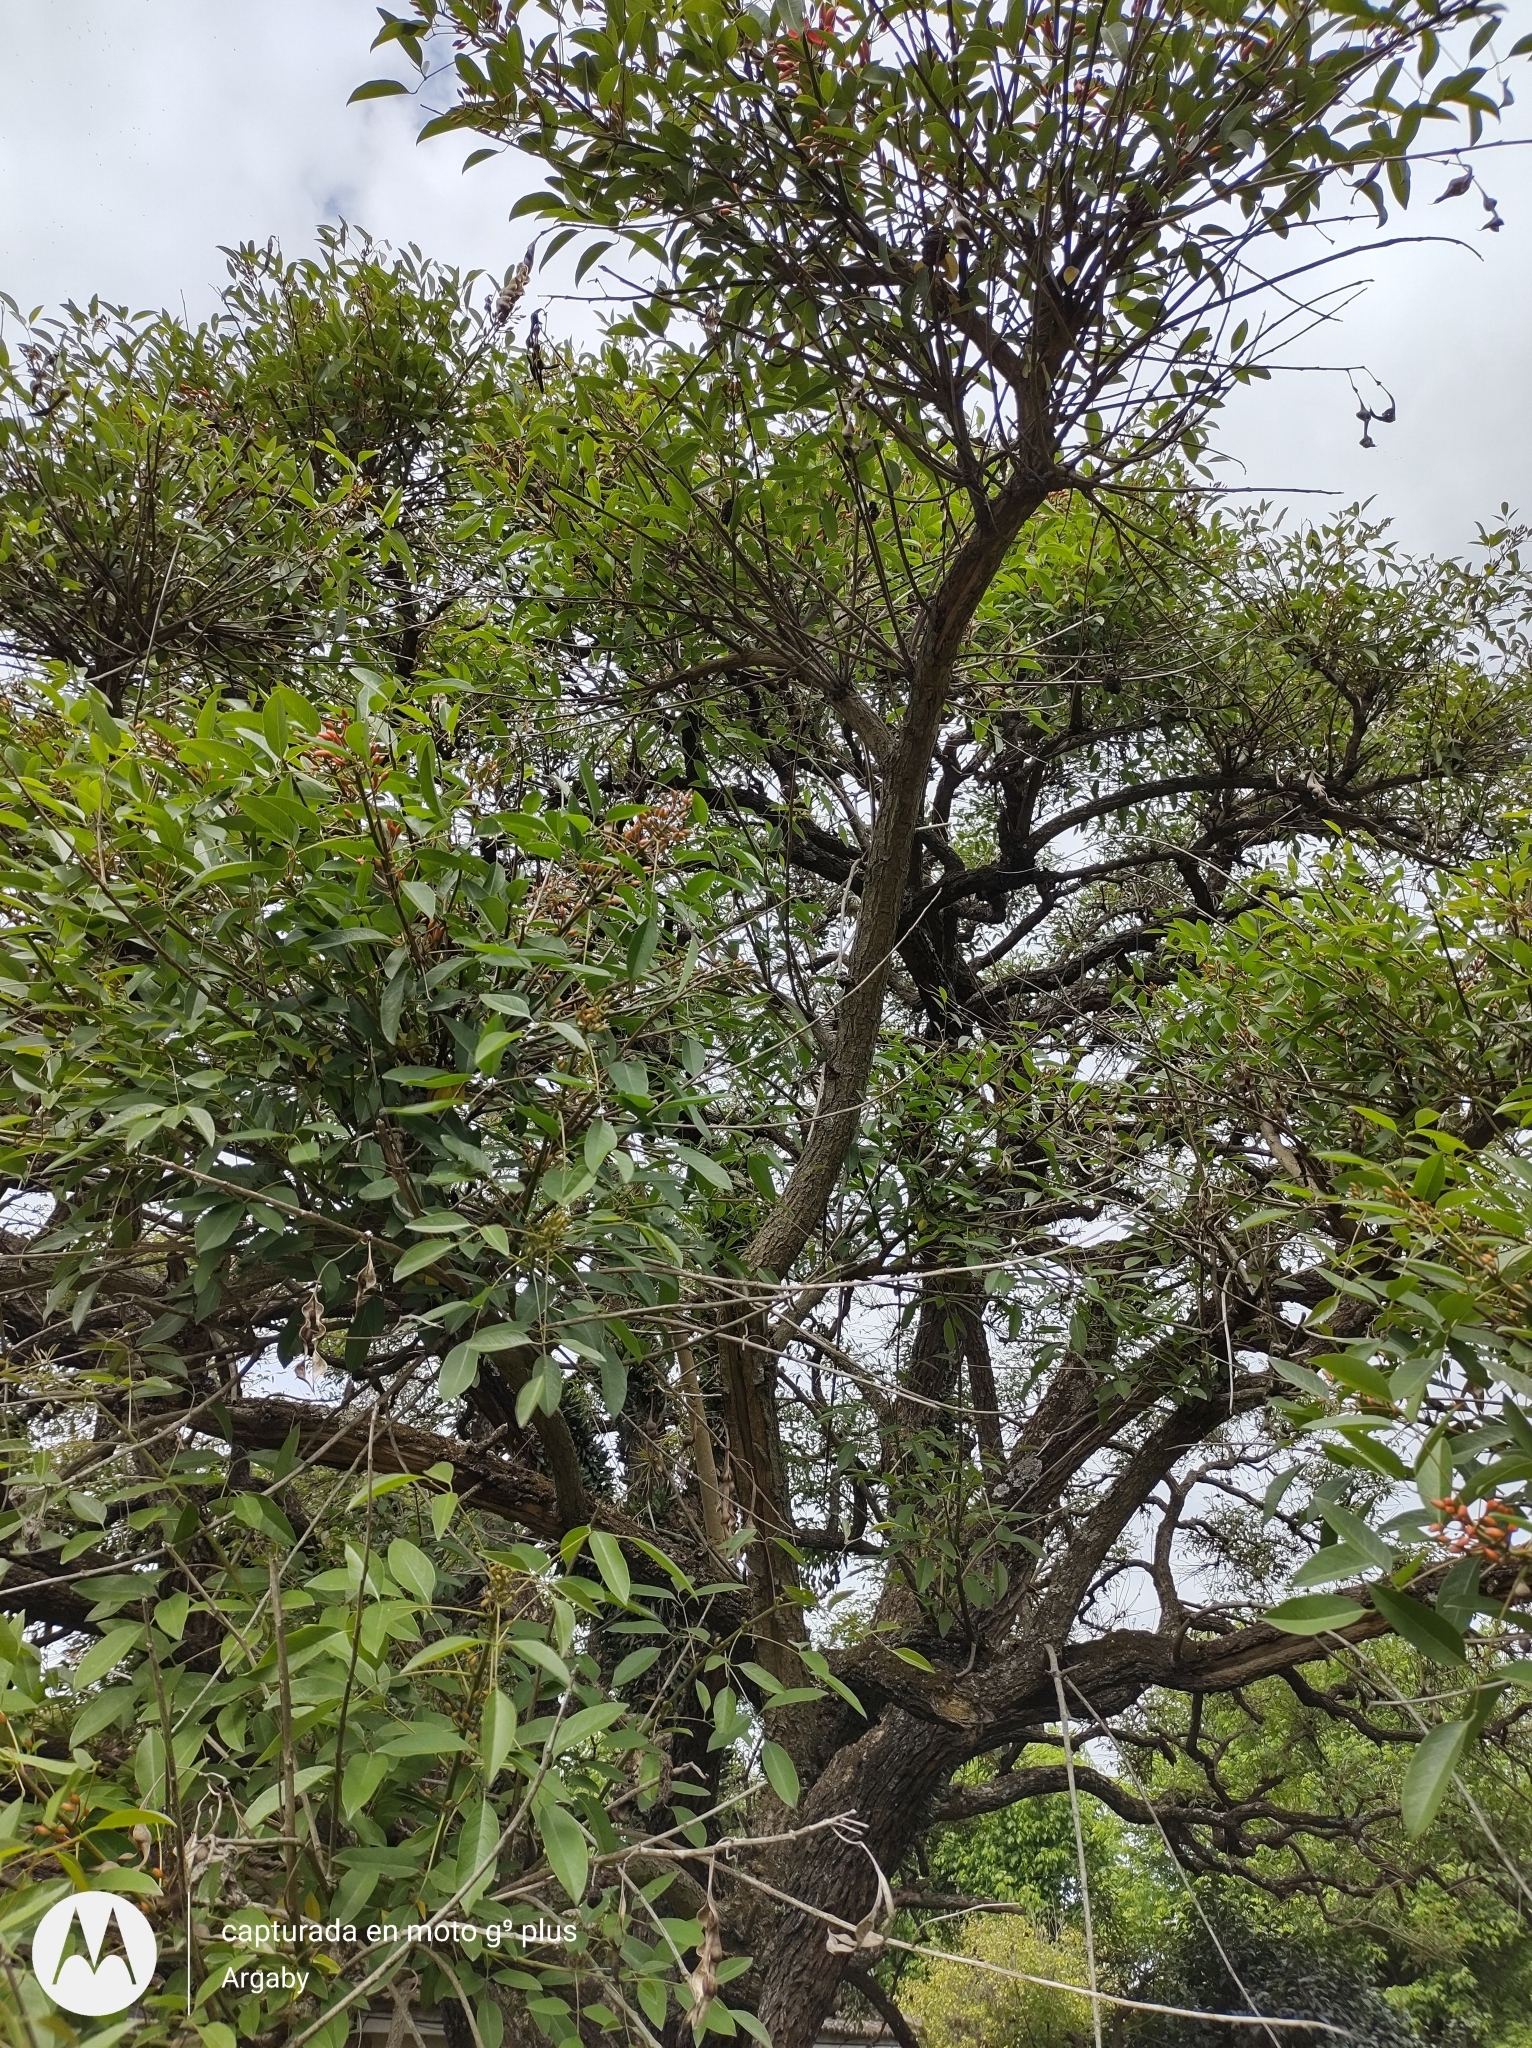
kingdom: Plantae
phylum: Tracheophyta
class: Magnoliopsida
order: Fabales
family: Fabaceae
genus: Erythrina
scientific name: Erythrina crista-galli
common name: Cockspur coral tree
